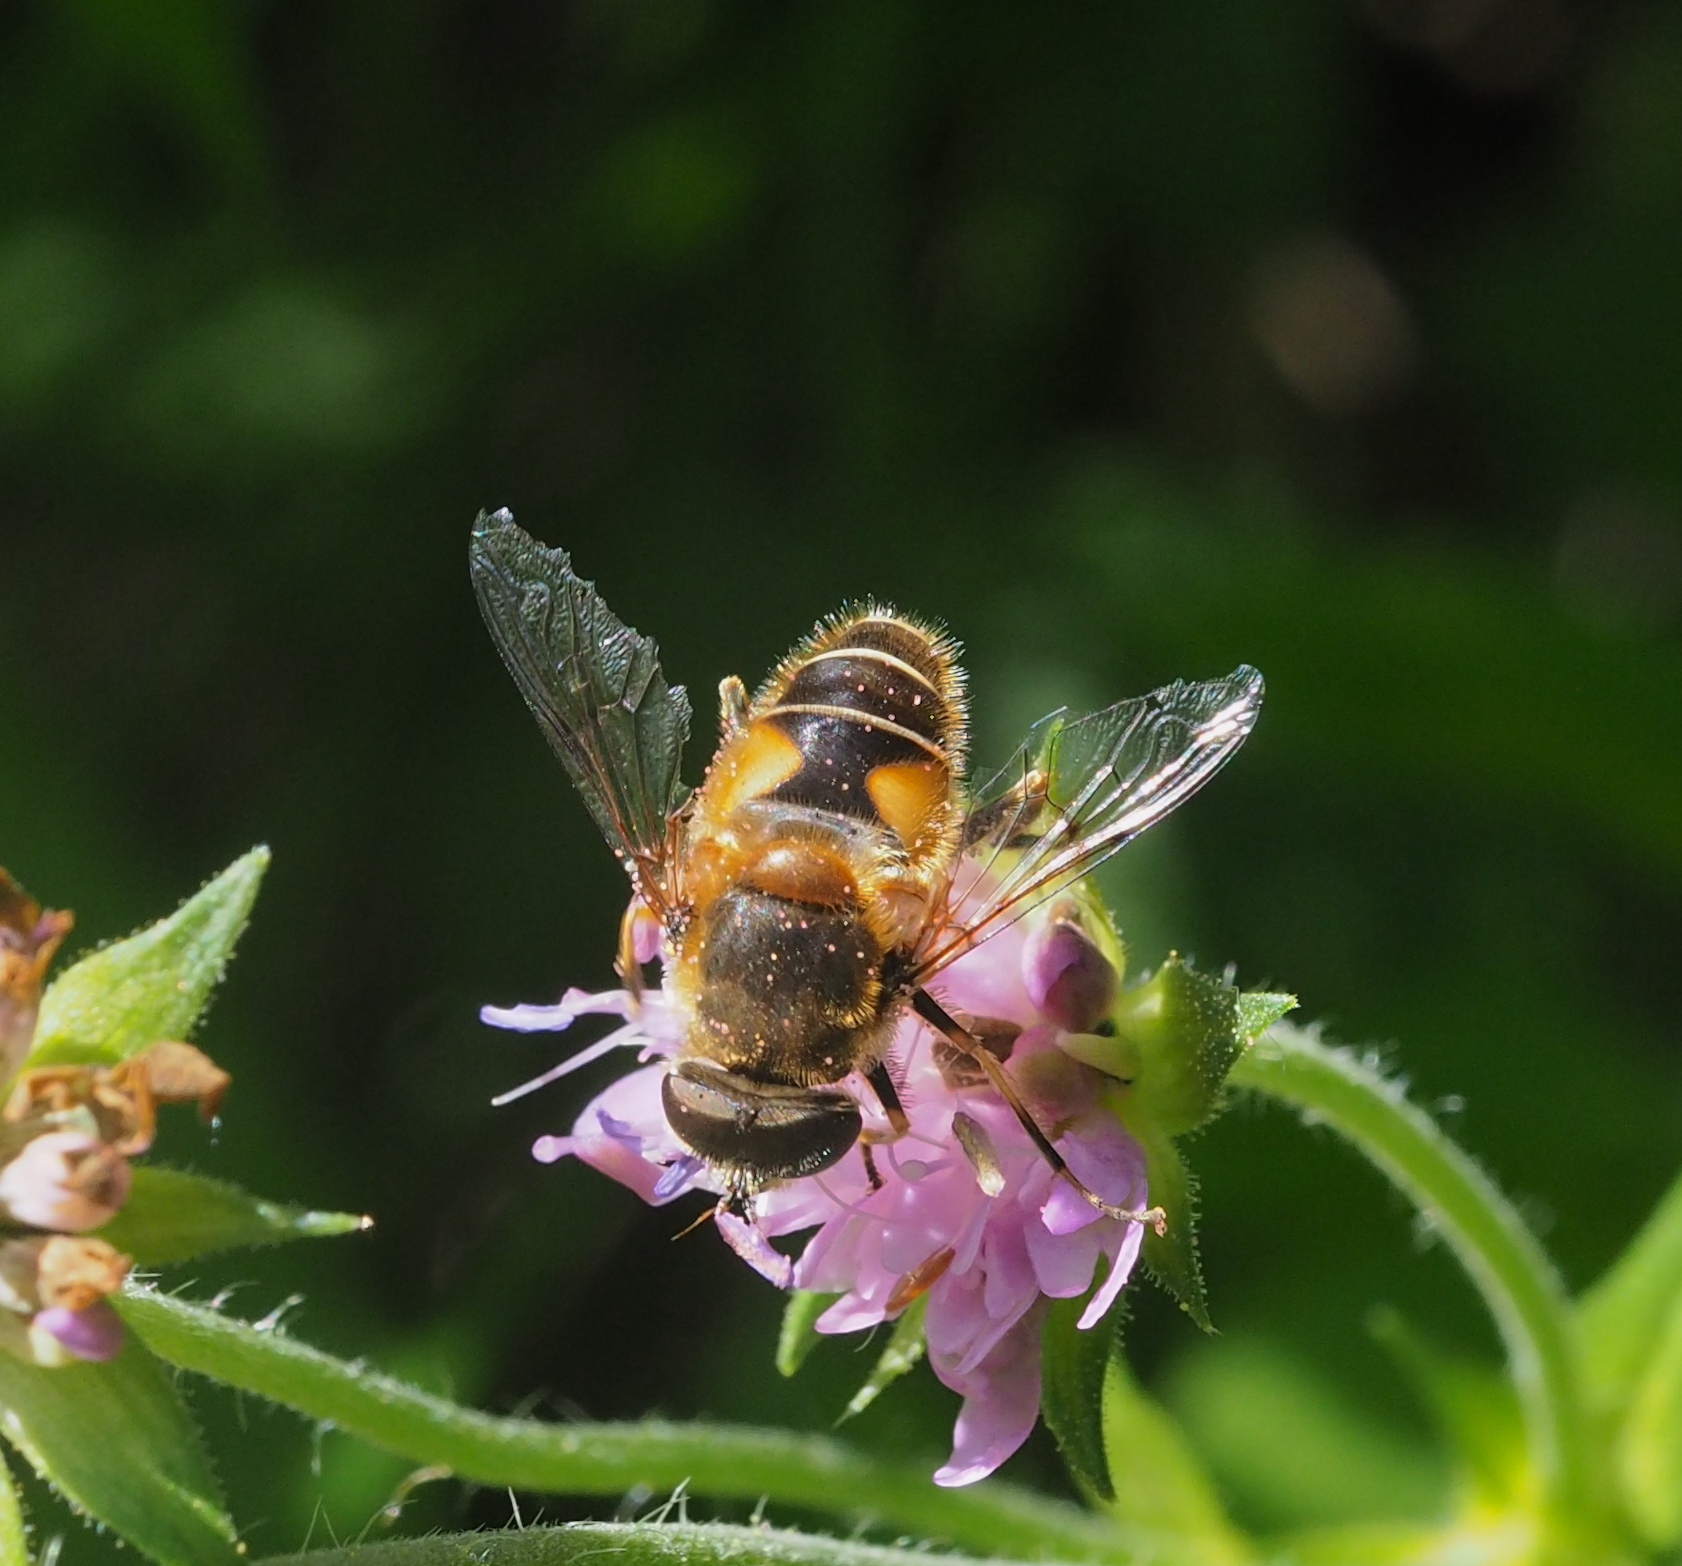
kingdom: Animalia
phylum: Arthropoda
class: Insecta
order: Diptera
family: Syrphidae
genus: Eristalis
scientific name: Eristalis jugorum
